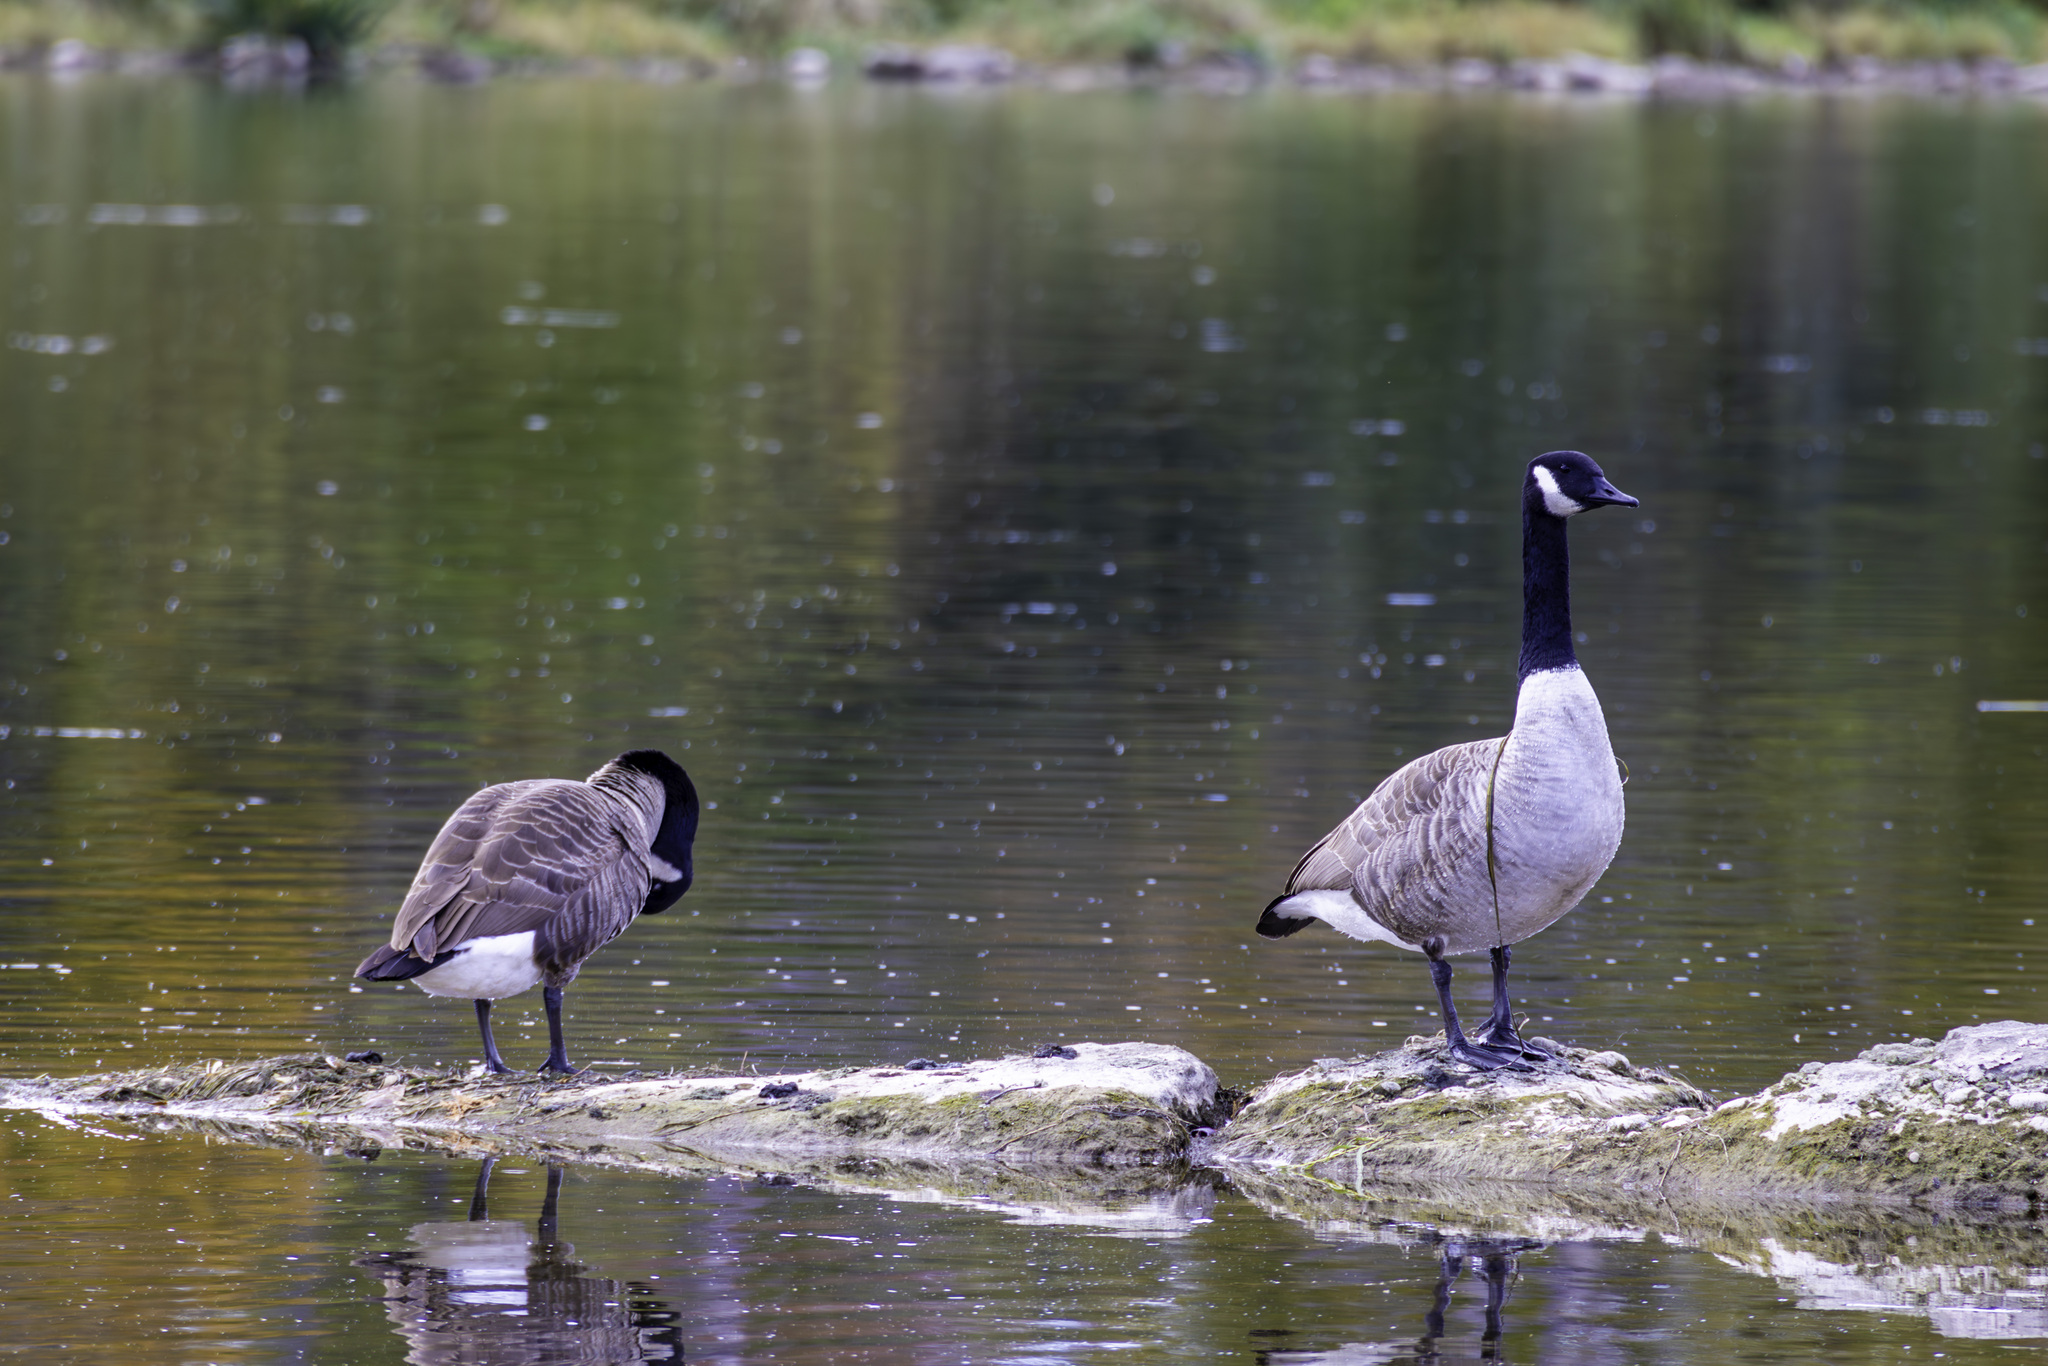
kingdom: Animalia
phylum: Chordata
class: Aves
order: Anseriformes
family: Anatidae
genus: Branta
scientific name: Branta canadensis
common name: Canada goose
